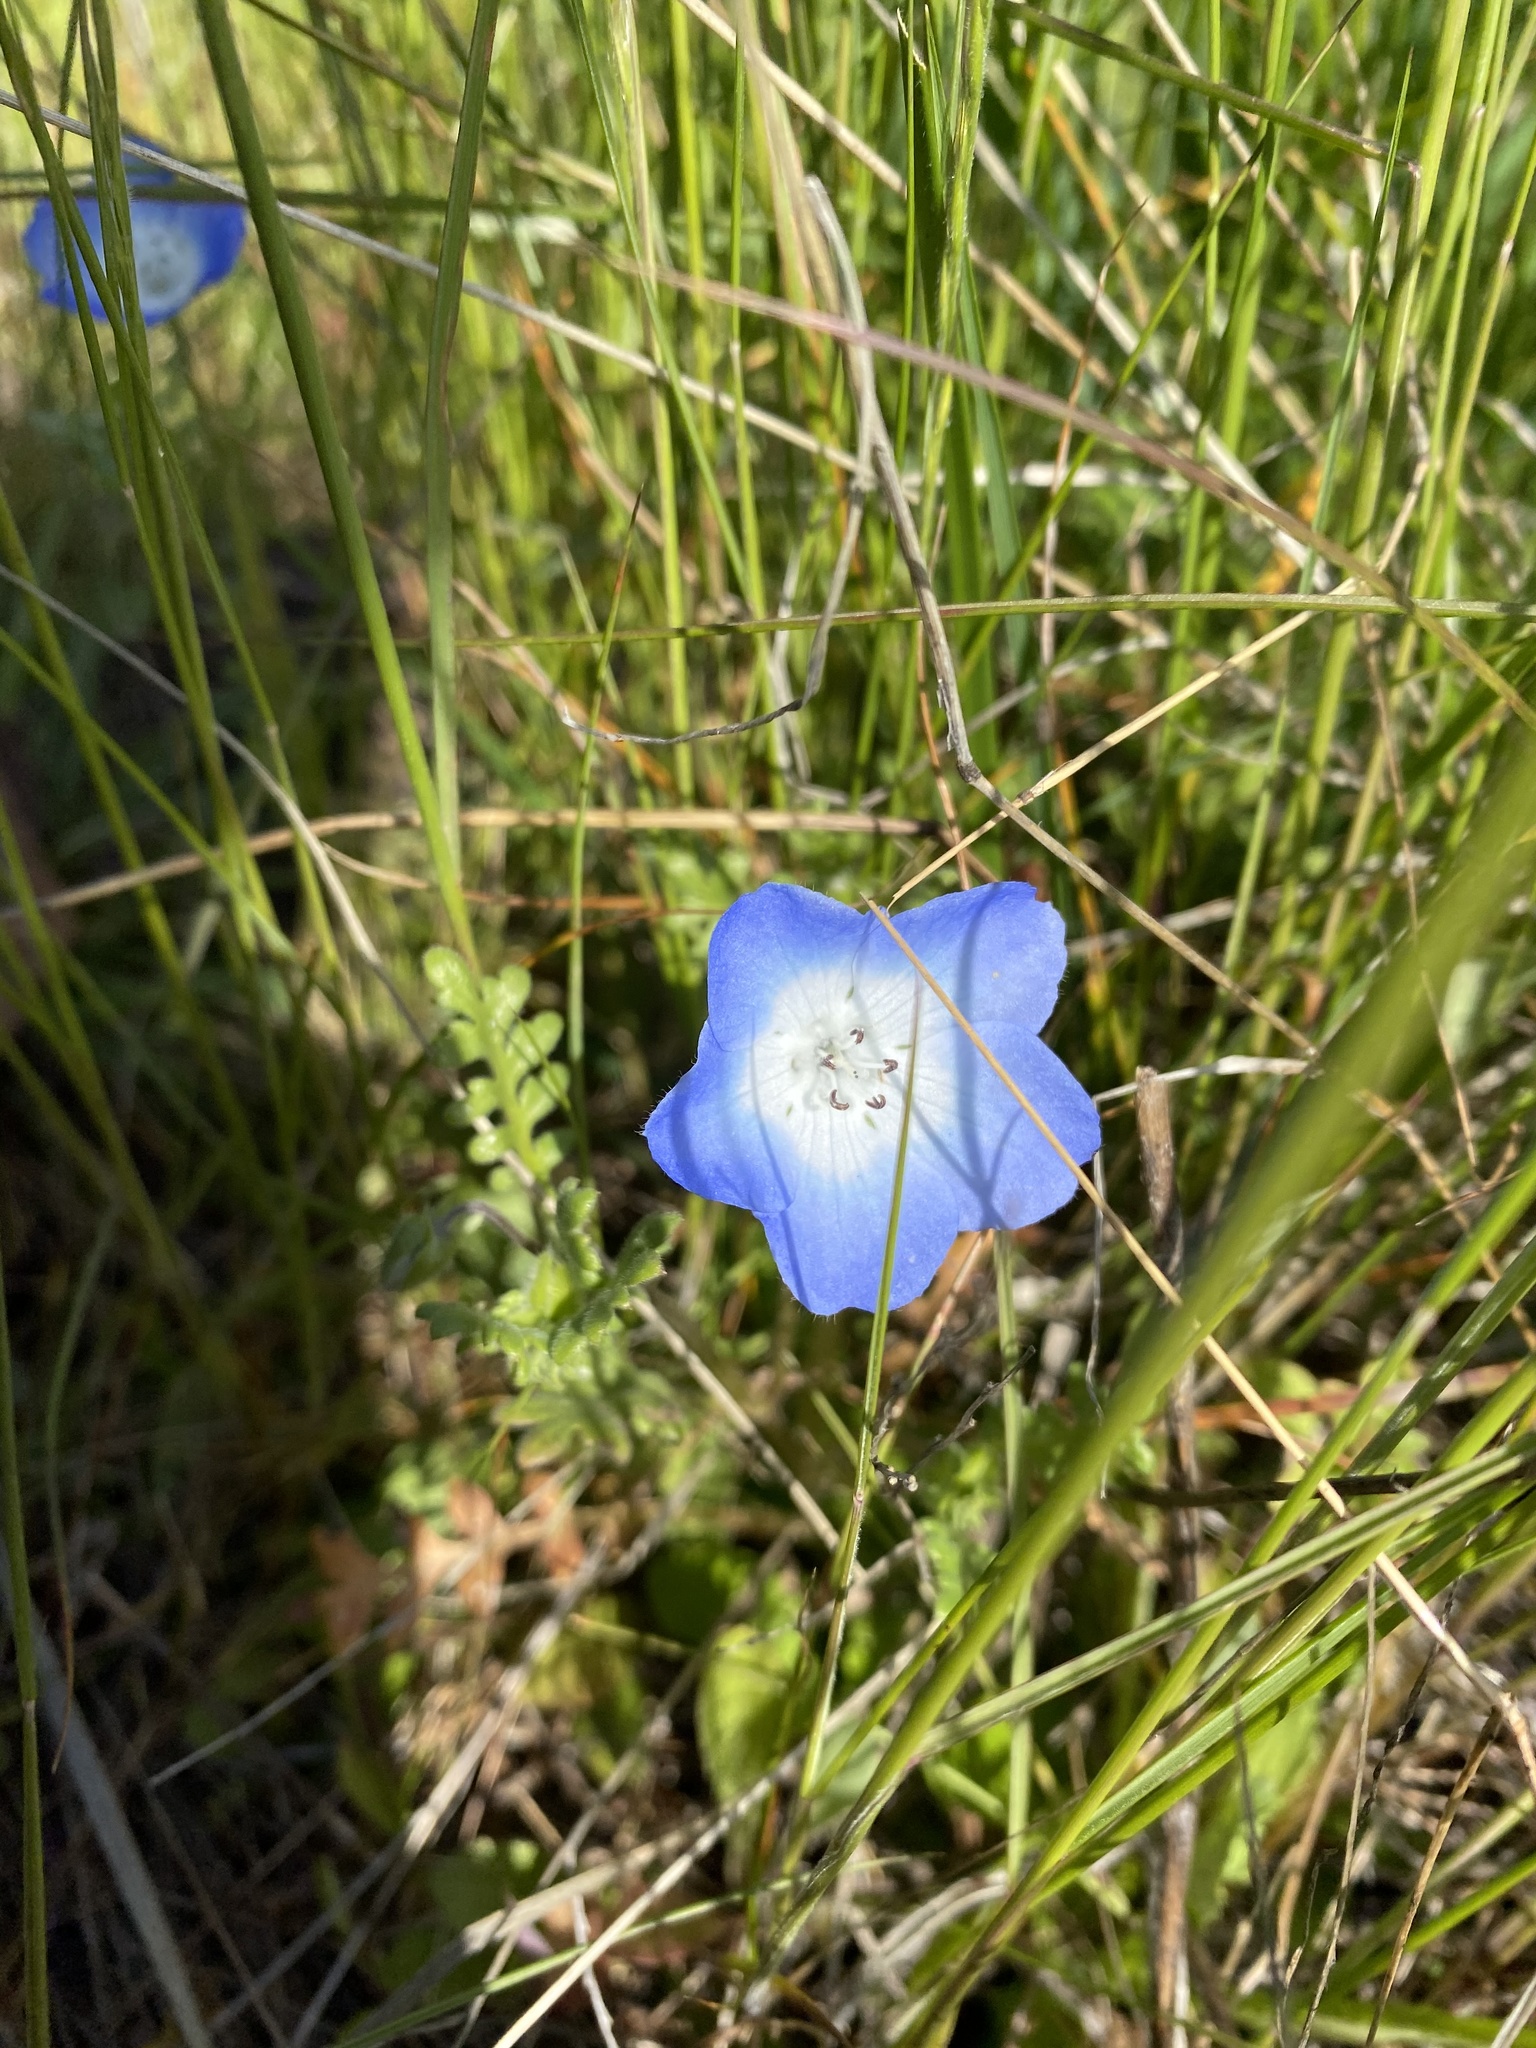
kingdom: Plantae
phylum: Tracheophyta
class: Magnoliopsida
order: Boraginales
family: Hydrophyllaceae
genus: Nemophila
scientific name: Nemophila menziesii
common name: Baby's-blue-eyes
